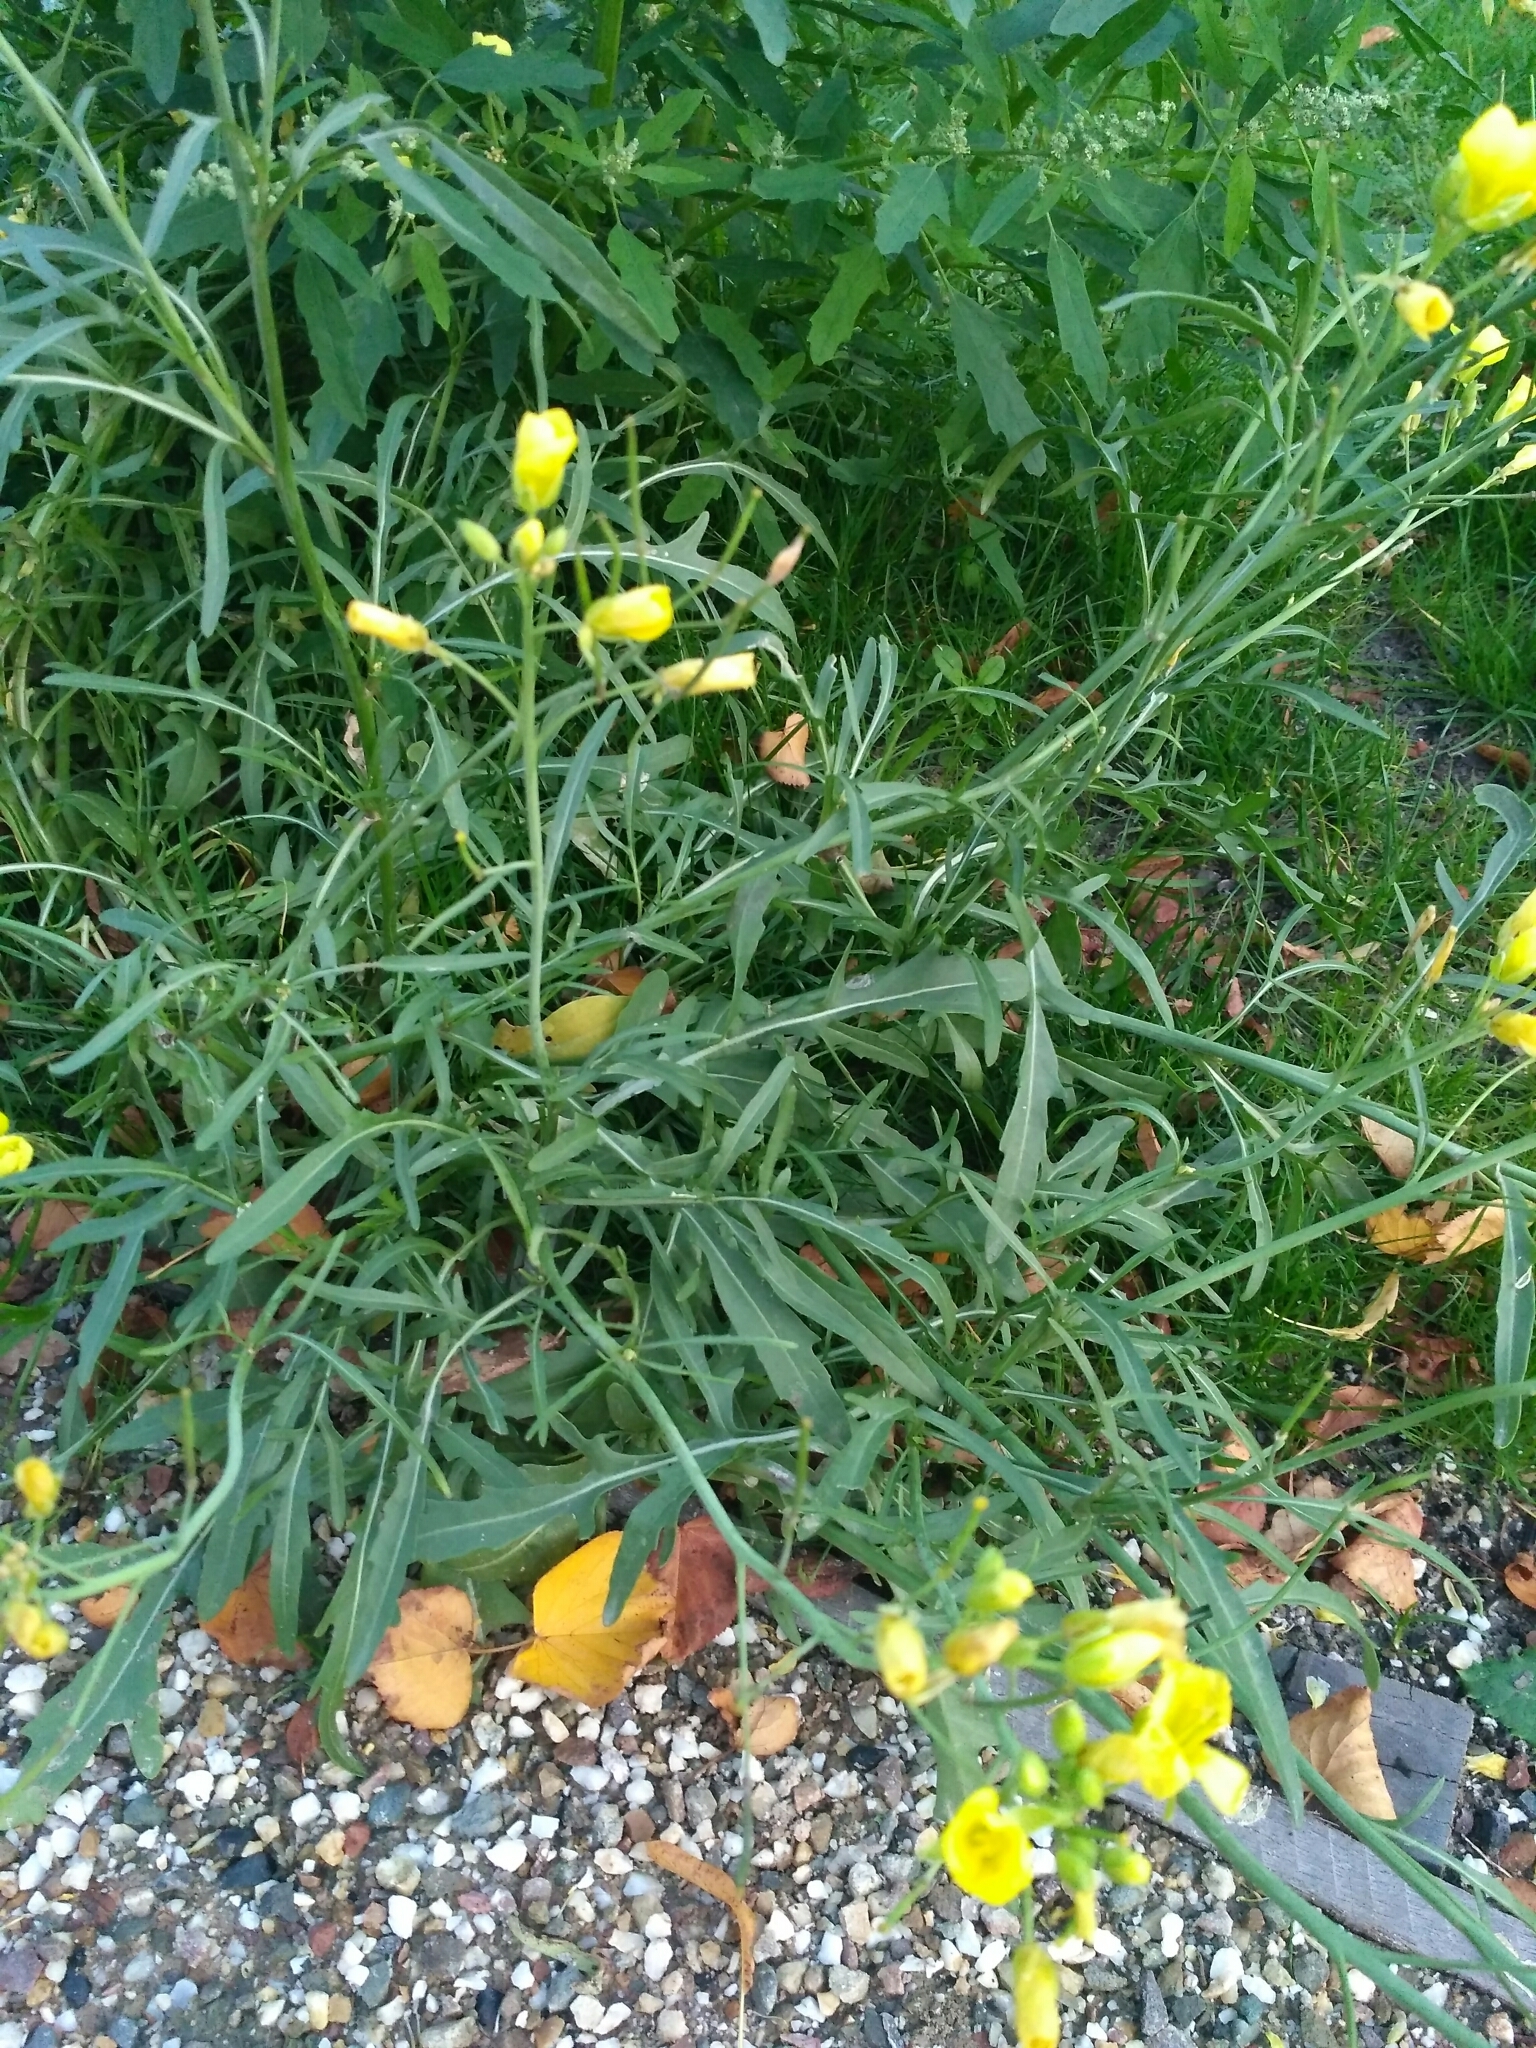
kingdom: Plantae
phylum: Tracheophyta
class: Magnoliopsida
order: Brassicales
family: Brassicaceae
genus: Diplotaxis
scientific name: Diplotaxis tenuifolia
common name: Perennial wall-rocket
